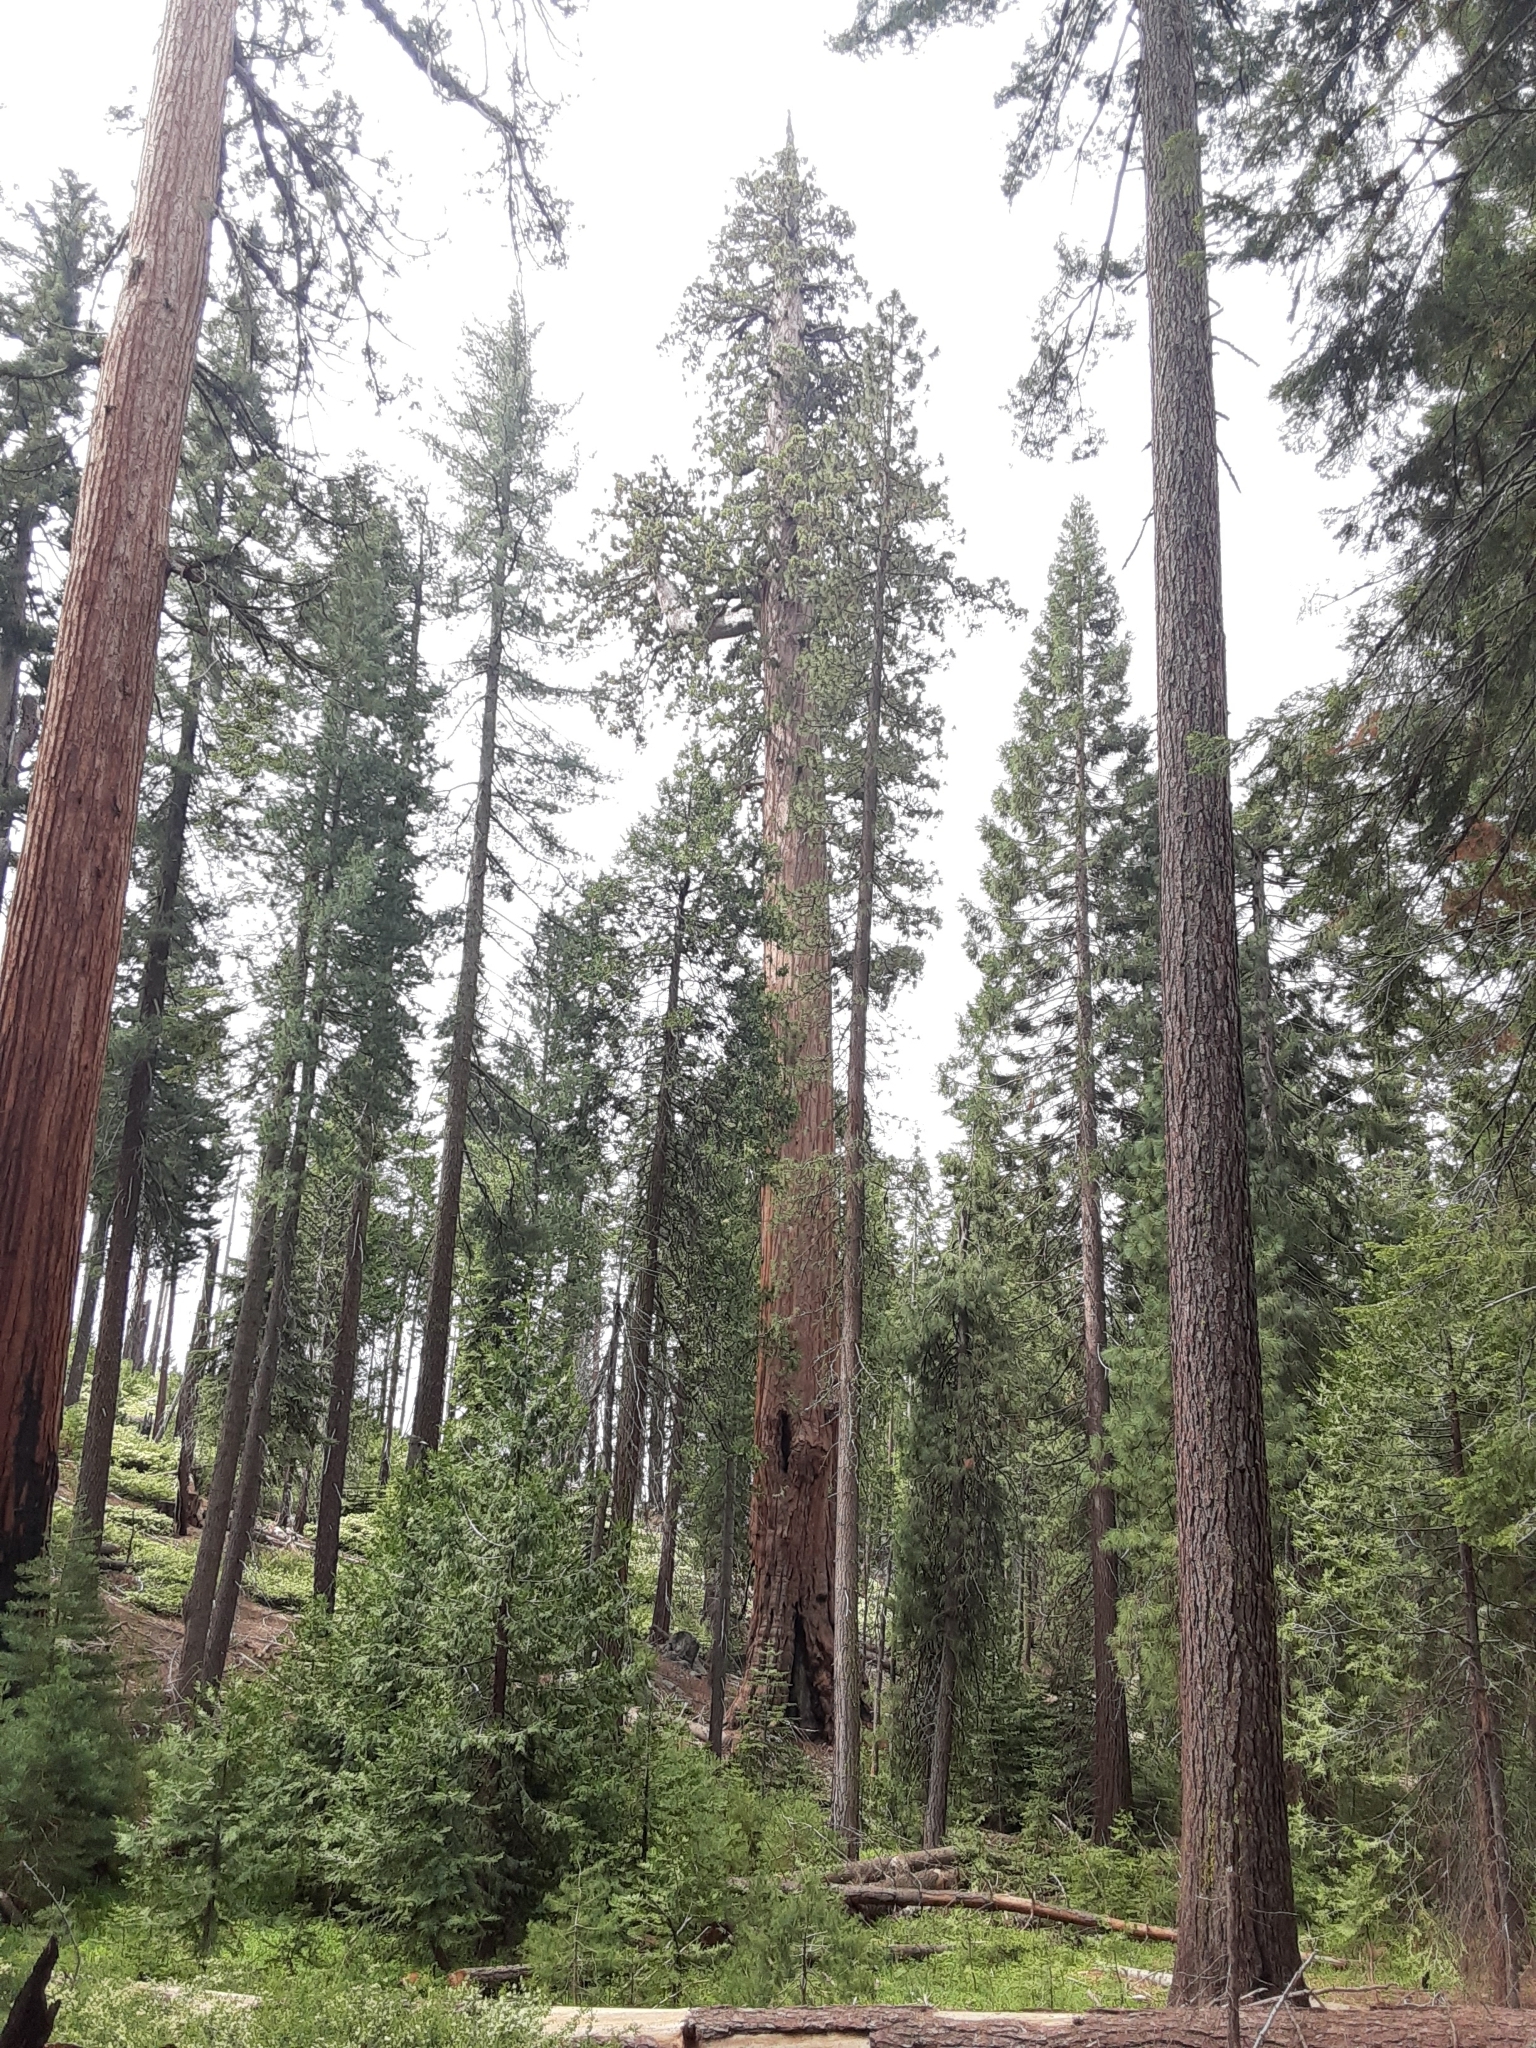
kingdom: Plantae
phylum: Tracheophyta
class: Pinopsida
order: Pinales
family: Cupressaceae
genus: Sequoiadendron
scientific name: Sequoiadendron giganteum
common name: Wellingtonia
